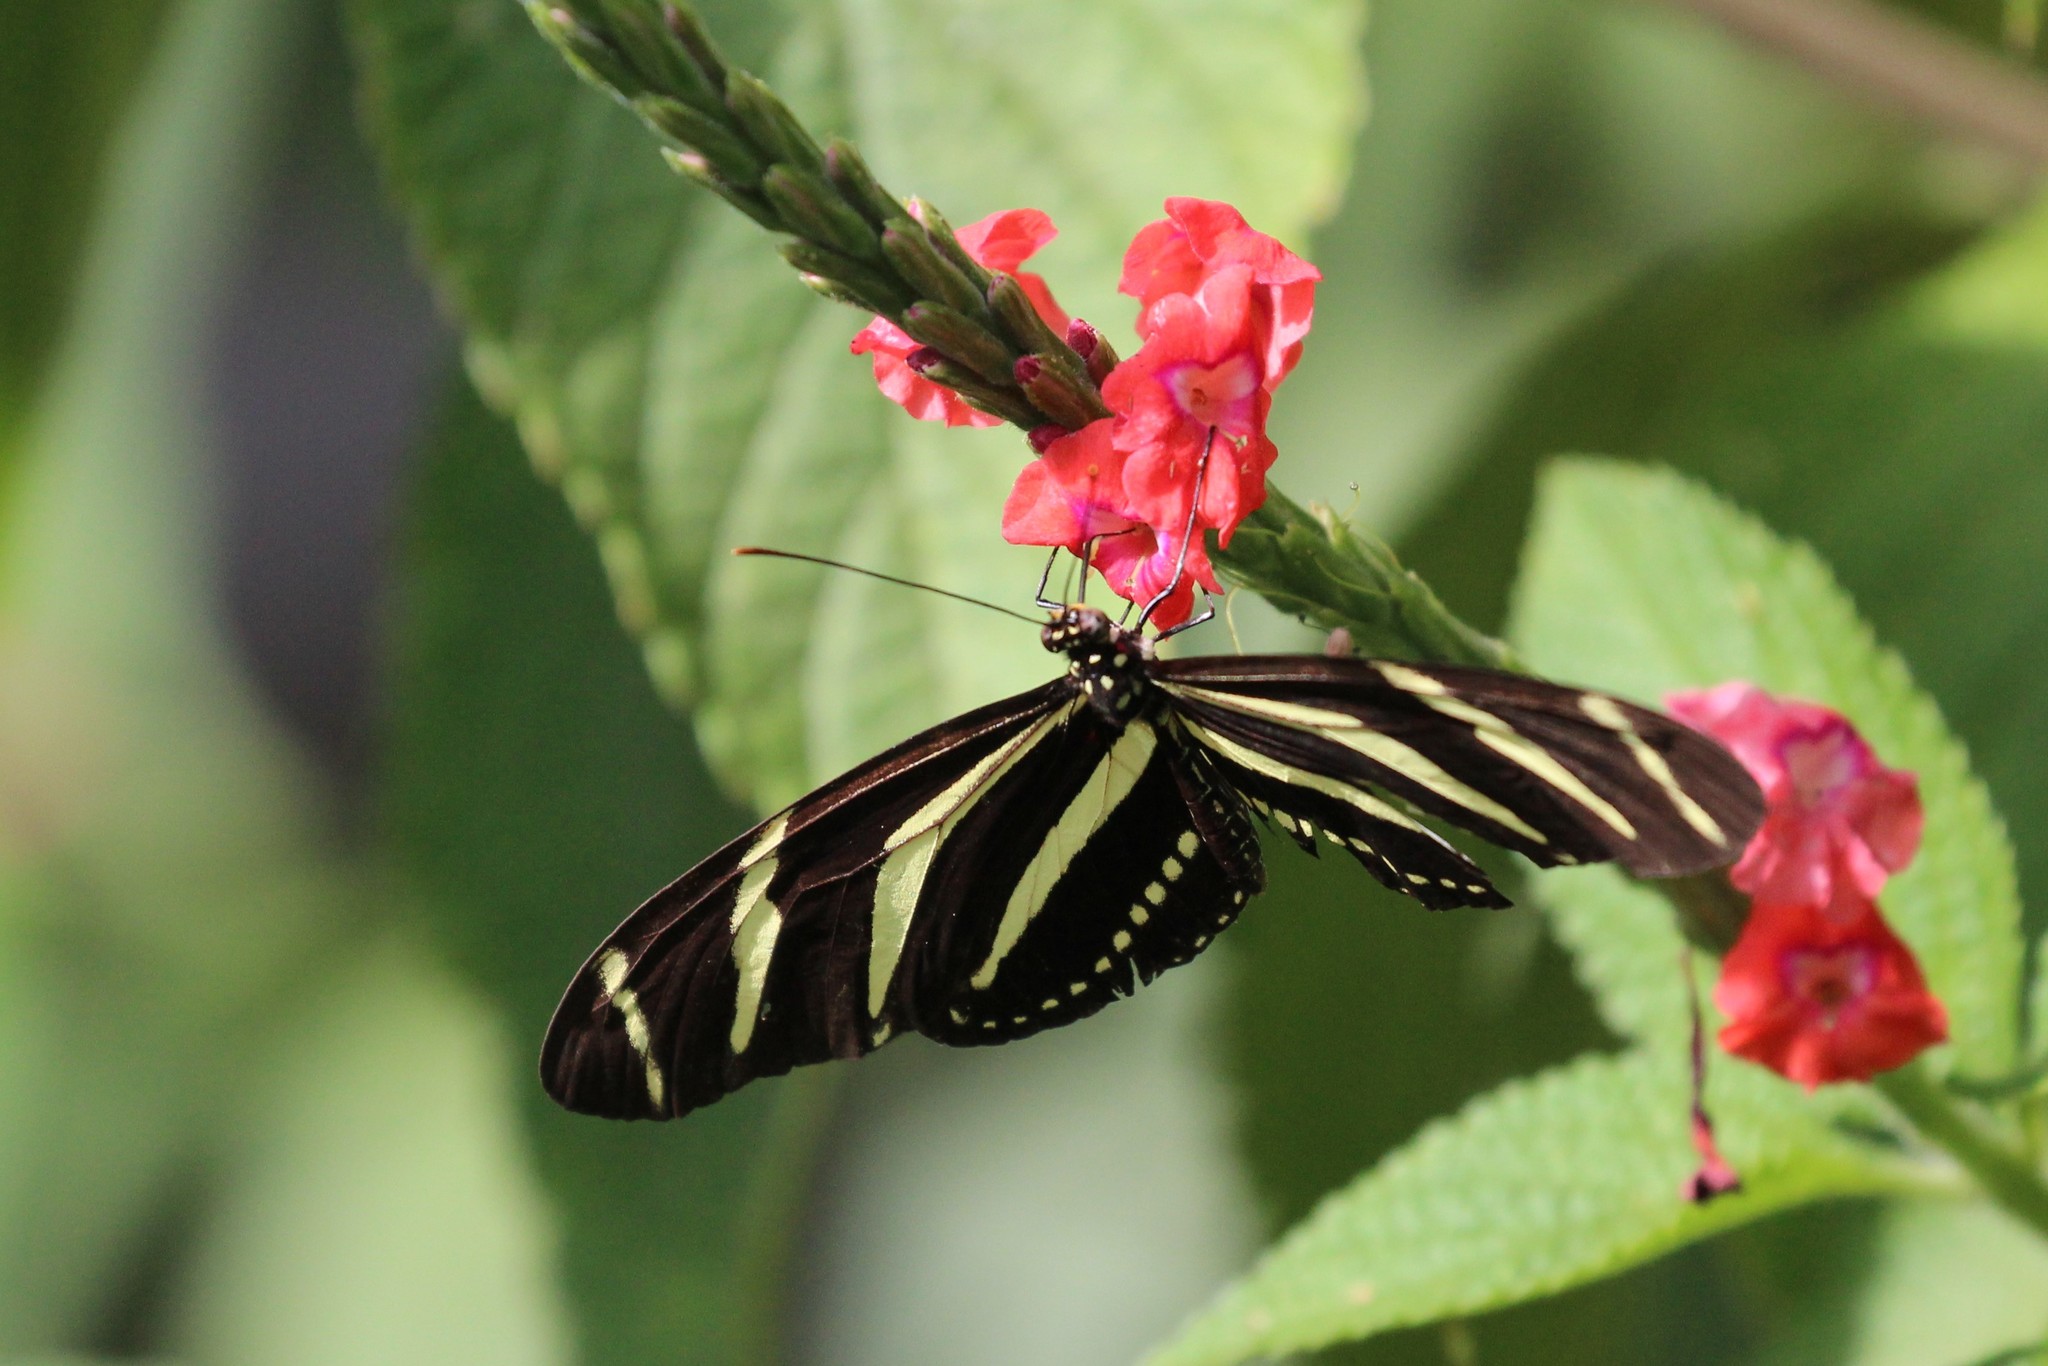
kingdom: Animalia
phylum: Arthropoda
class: Insecta
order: Lepidoptera
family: Nymphalidae
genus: Heliconius
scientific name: Heliconius charithonia
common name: Zebra long wing
